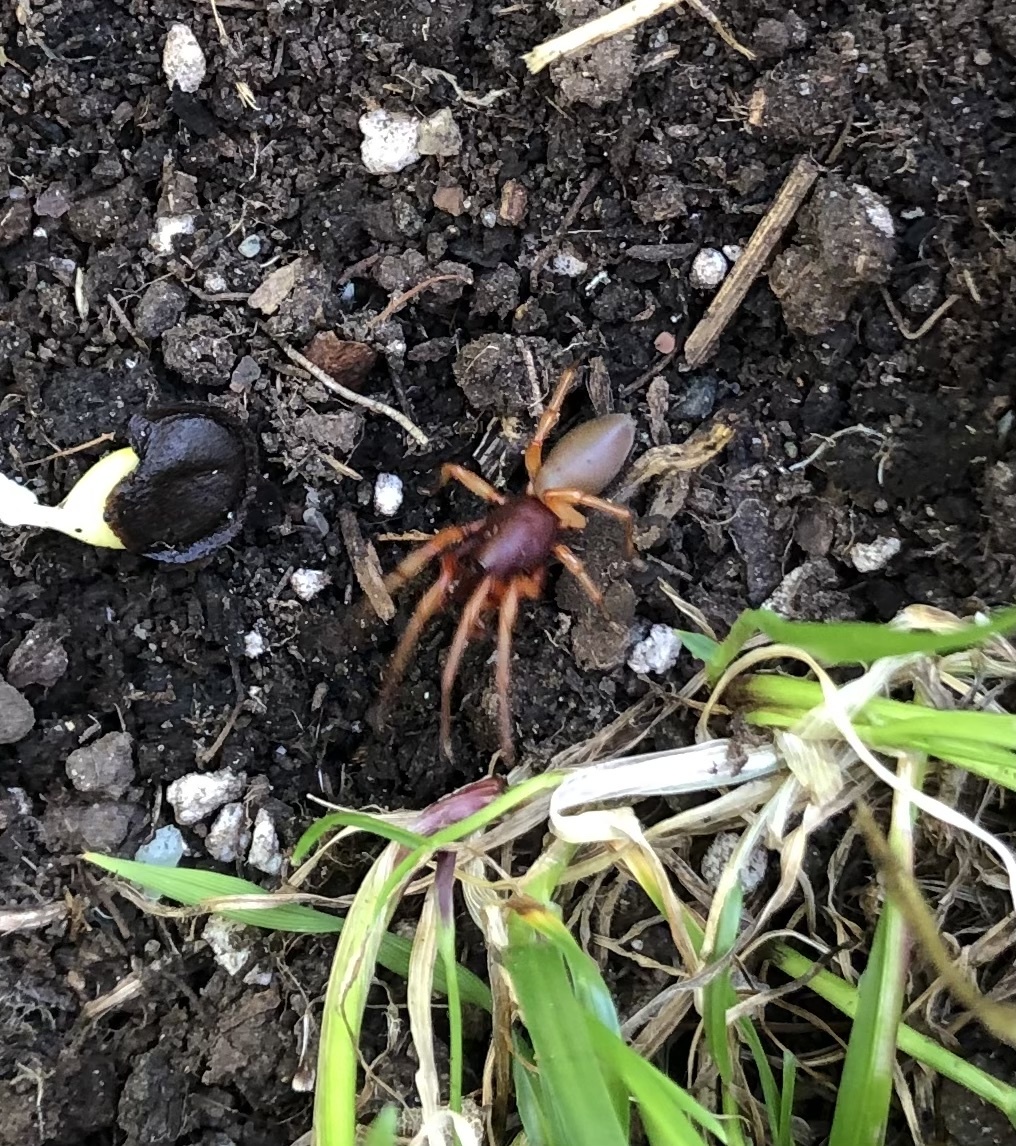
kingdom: Animalia
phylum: Arthropoda
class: Arachnida
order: Araneae
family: Dysderidae
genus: Dysdera
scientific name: Dysdera crocata
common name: Woodlouse spider
